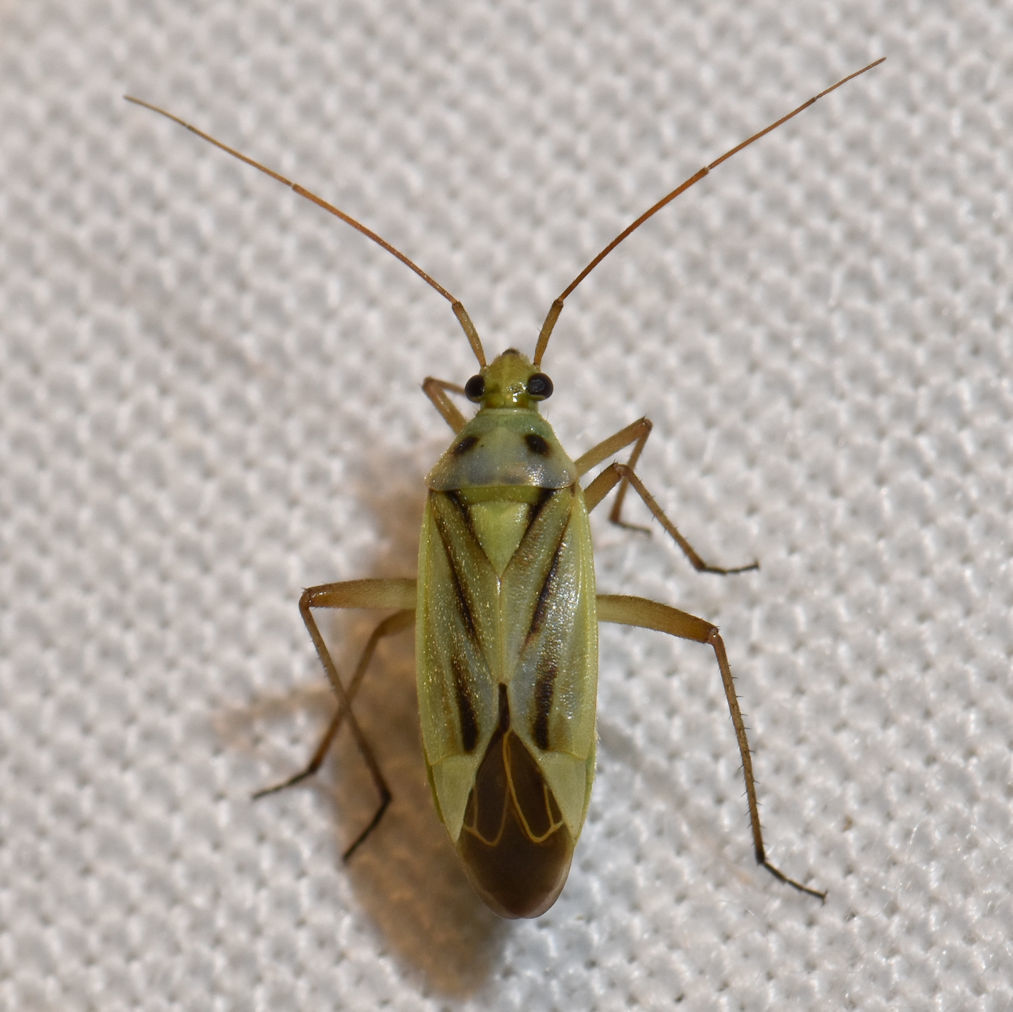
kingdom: Animalia
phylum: Arthropoda
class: Insecta
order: Hemiptera
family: Miridae
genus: Stenotus
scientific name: Stenotus binotatus
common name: Plant bug
